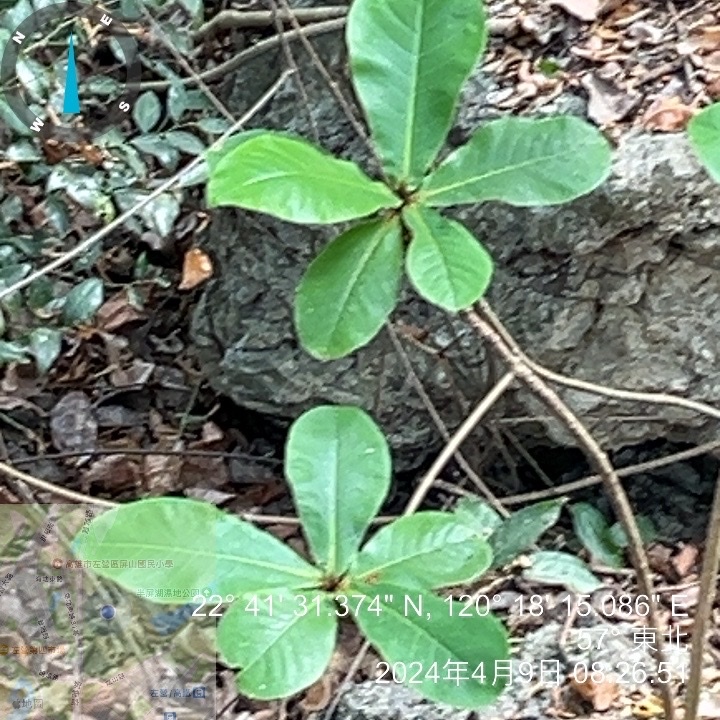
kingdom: Plantae
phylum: Tracheophyta
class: Magnoliopsida
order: Myrtales
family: Combretaceae
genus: Terminalia
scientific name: Terminalia catappa
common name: Tropical almond
